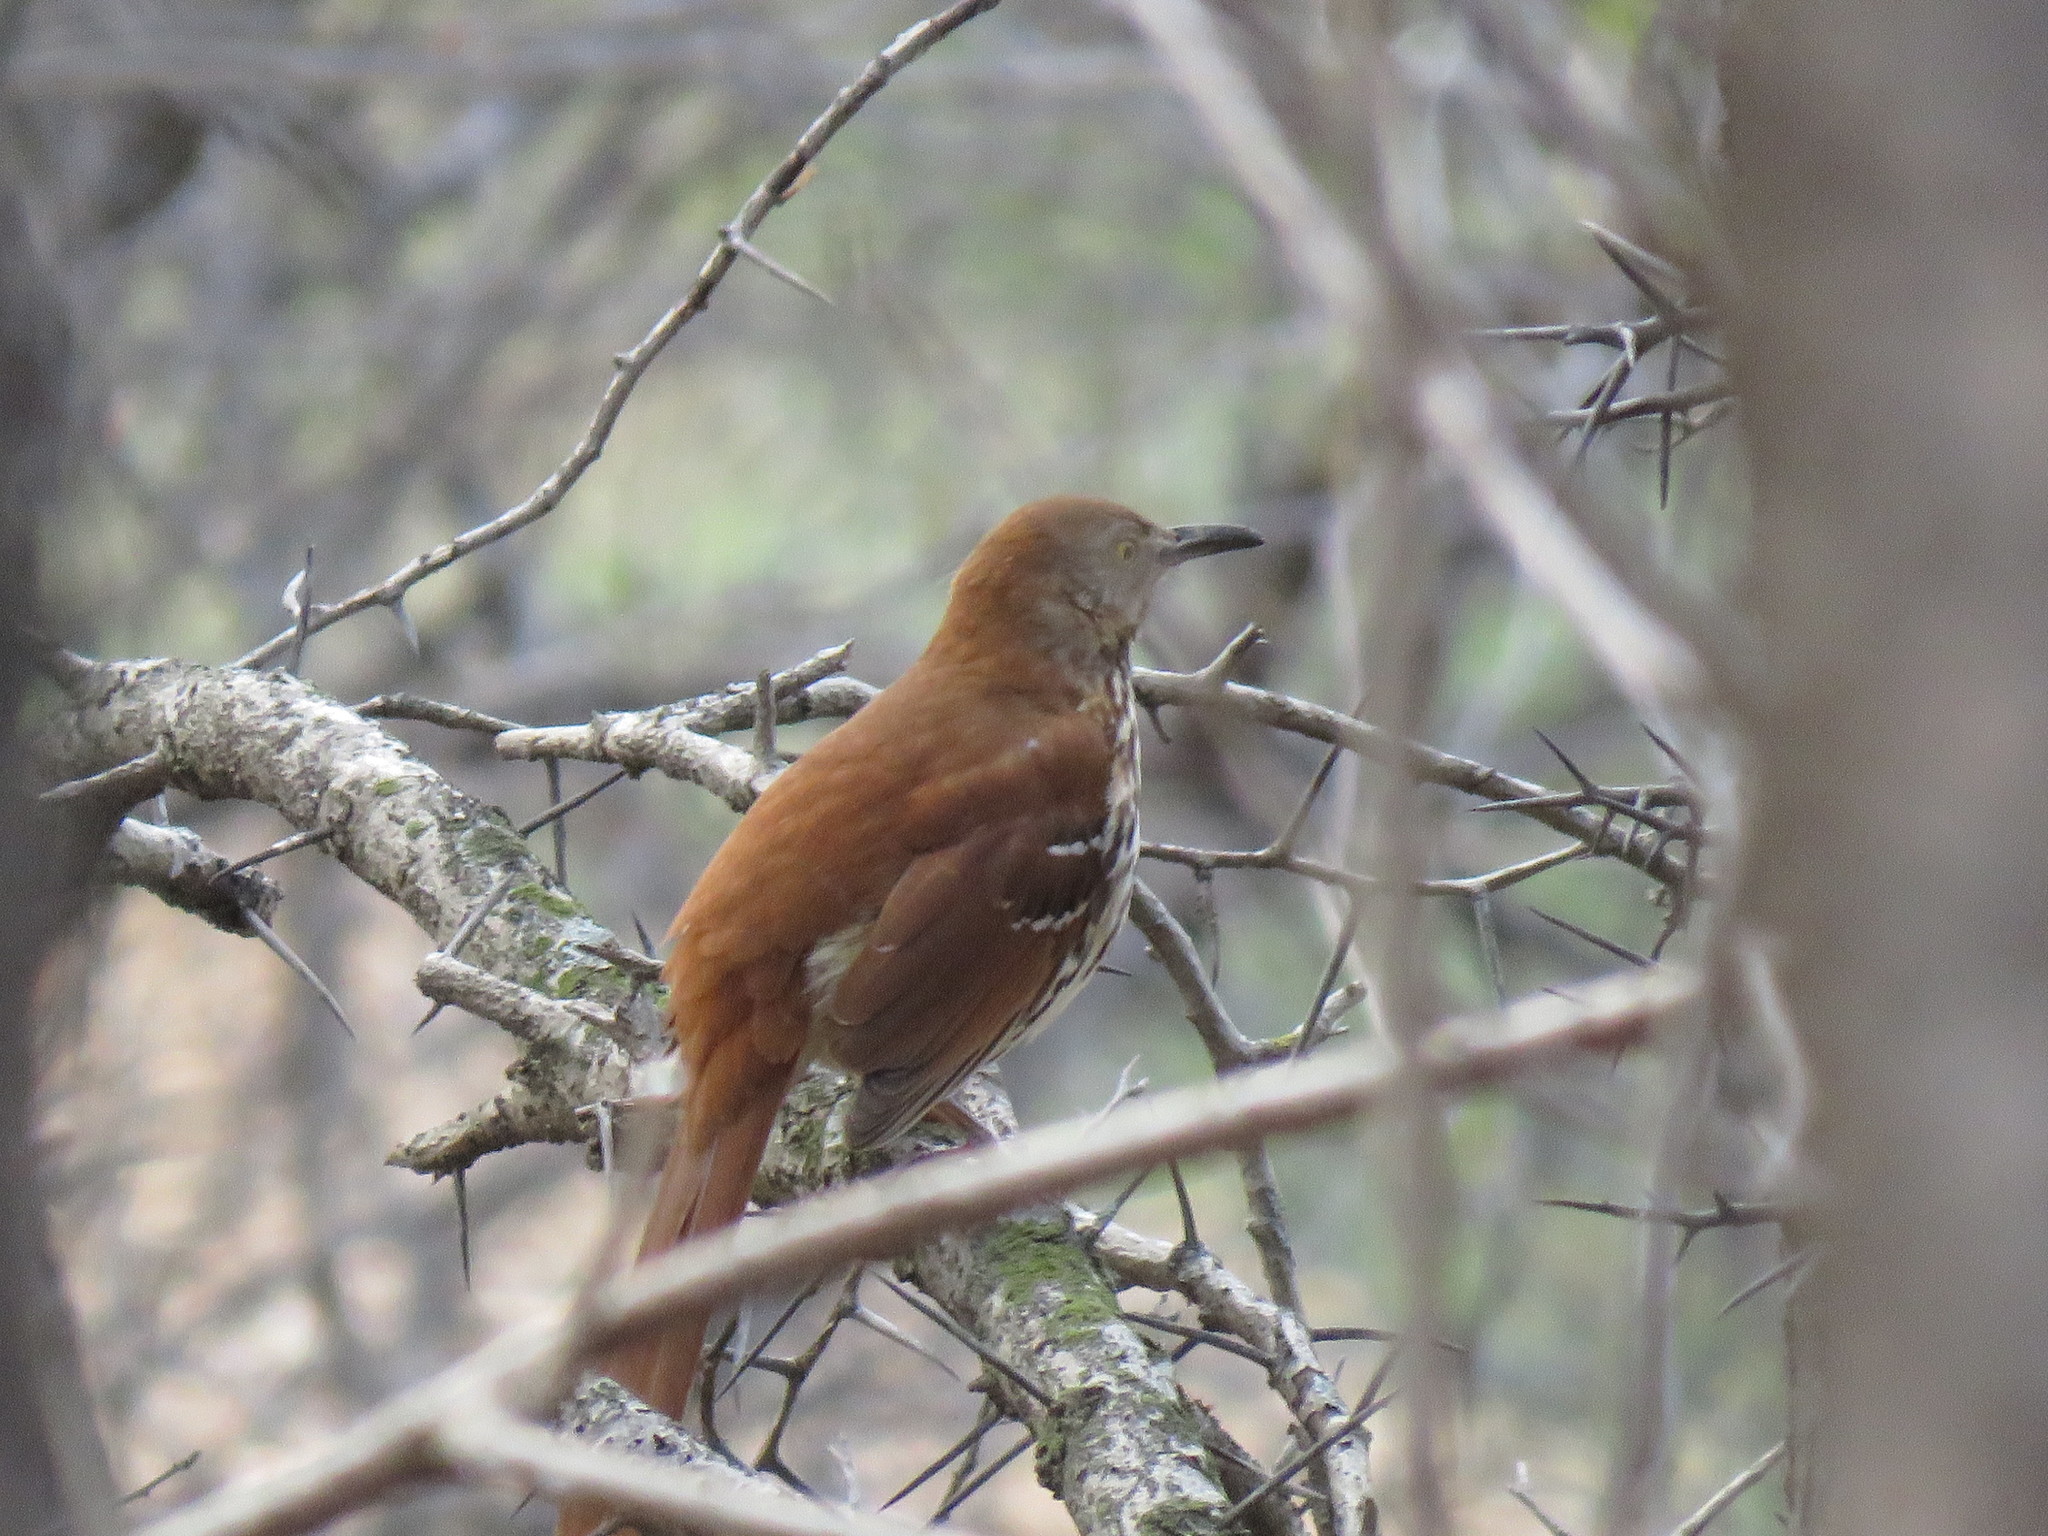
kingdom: Animalia
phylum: Chordata
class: Aves
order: Passeriformes
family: Mimidae
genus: Toxostoma
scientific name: Toxostoma rufum
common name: Brown thrasher
